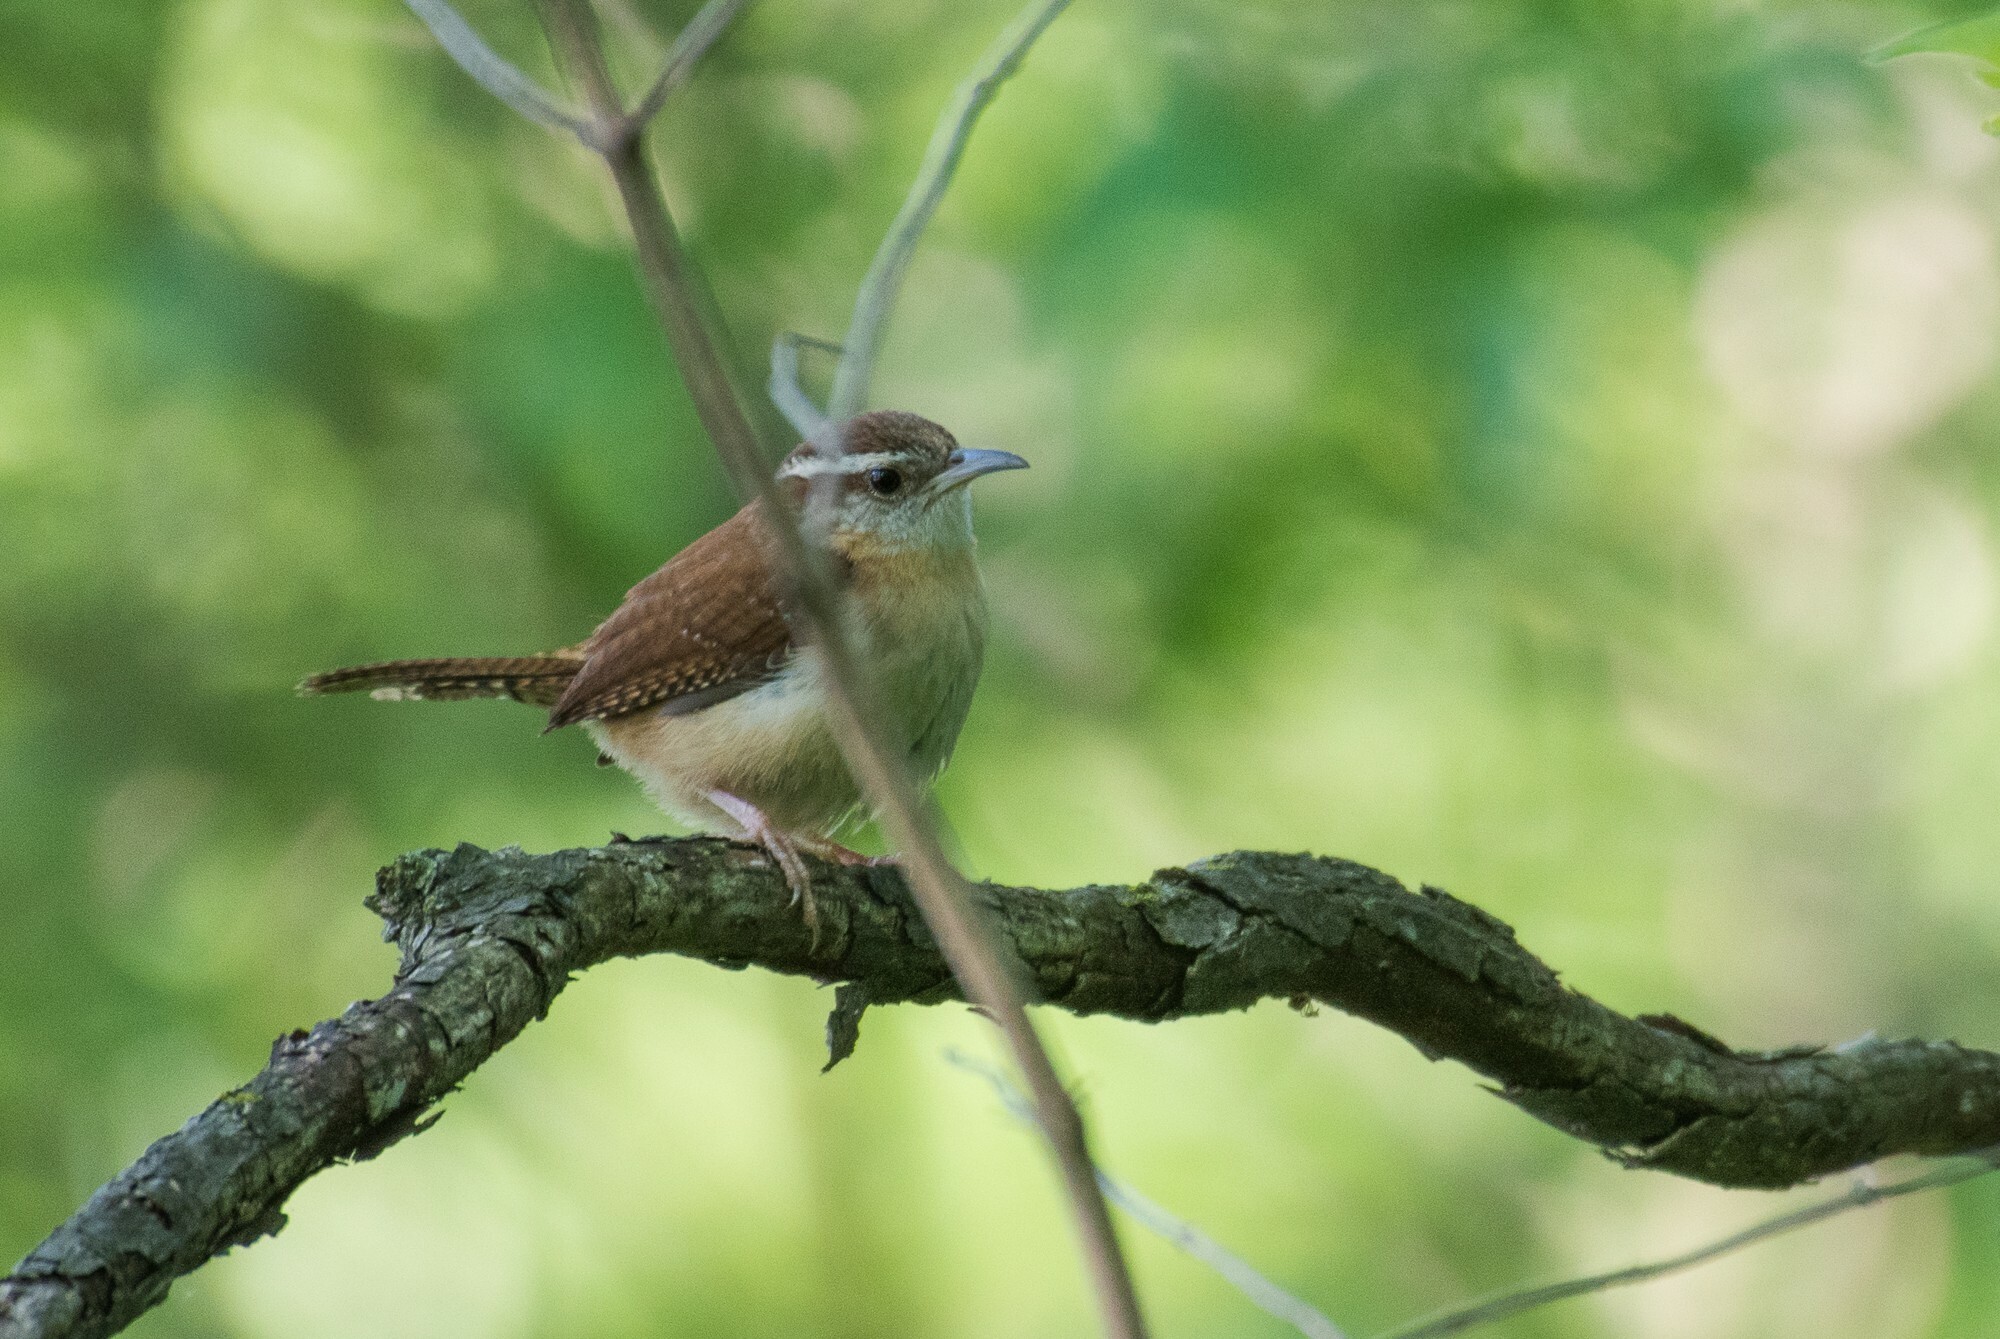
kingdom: Animalia
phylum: Chordata
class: Aves
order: Passeriformes
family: Troglodytidae
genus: Thryothorus
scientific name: Thryothorus ludovicianus
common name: Carolina wren
